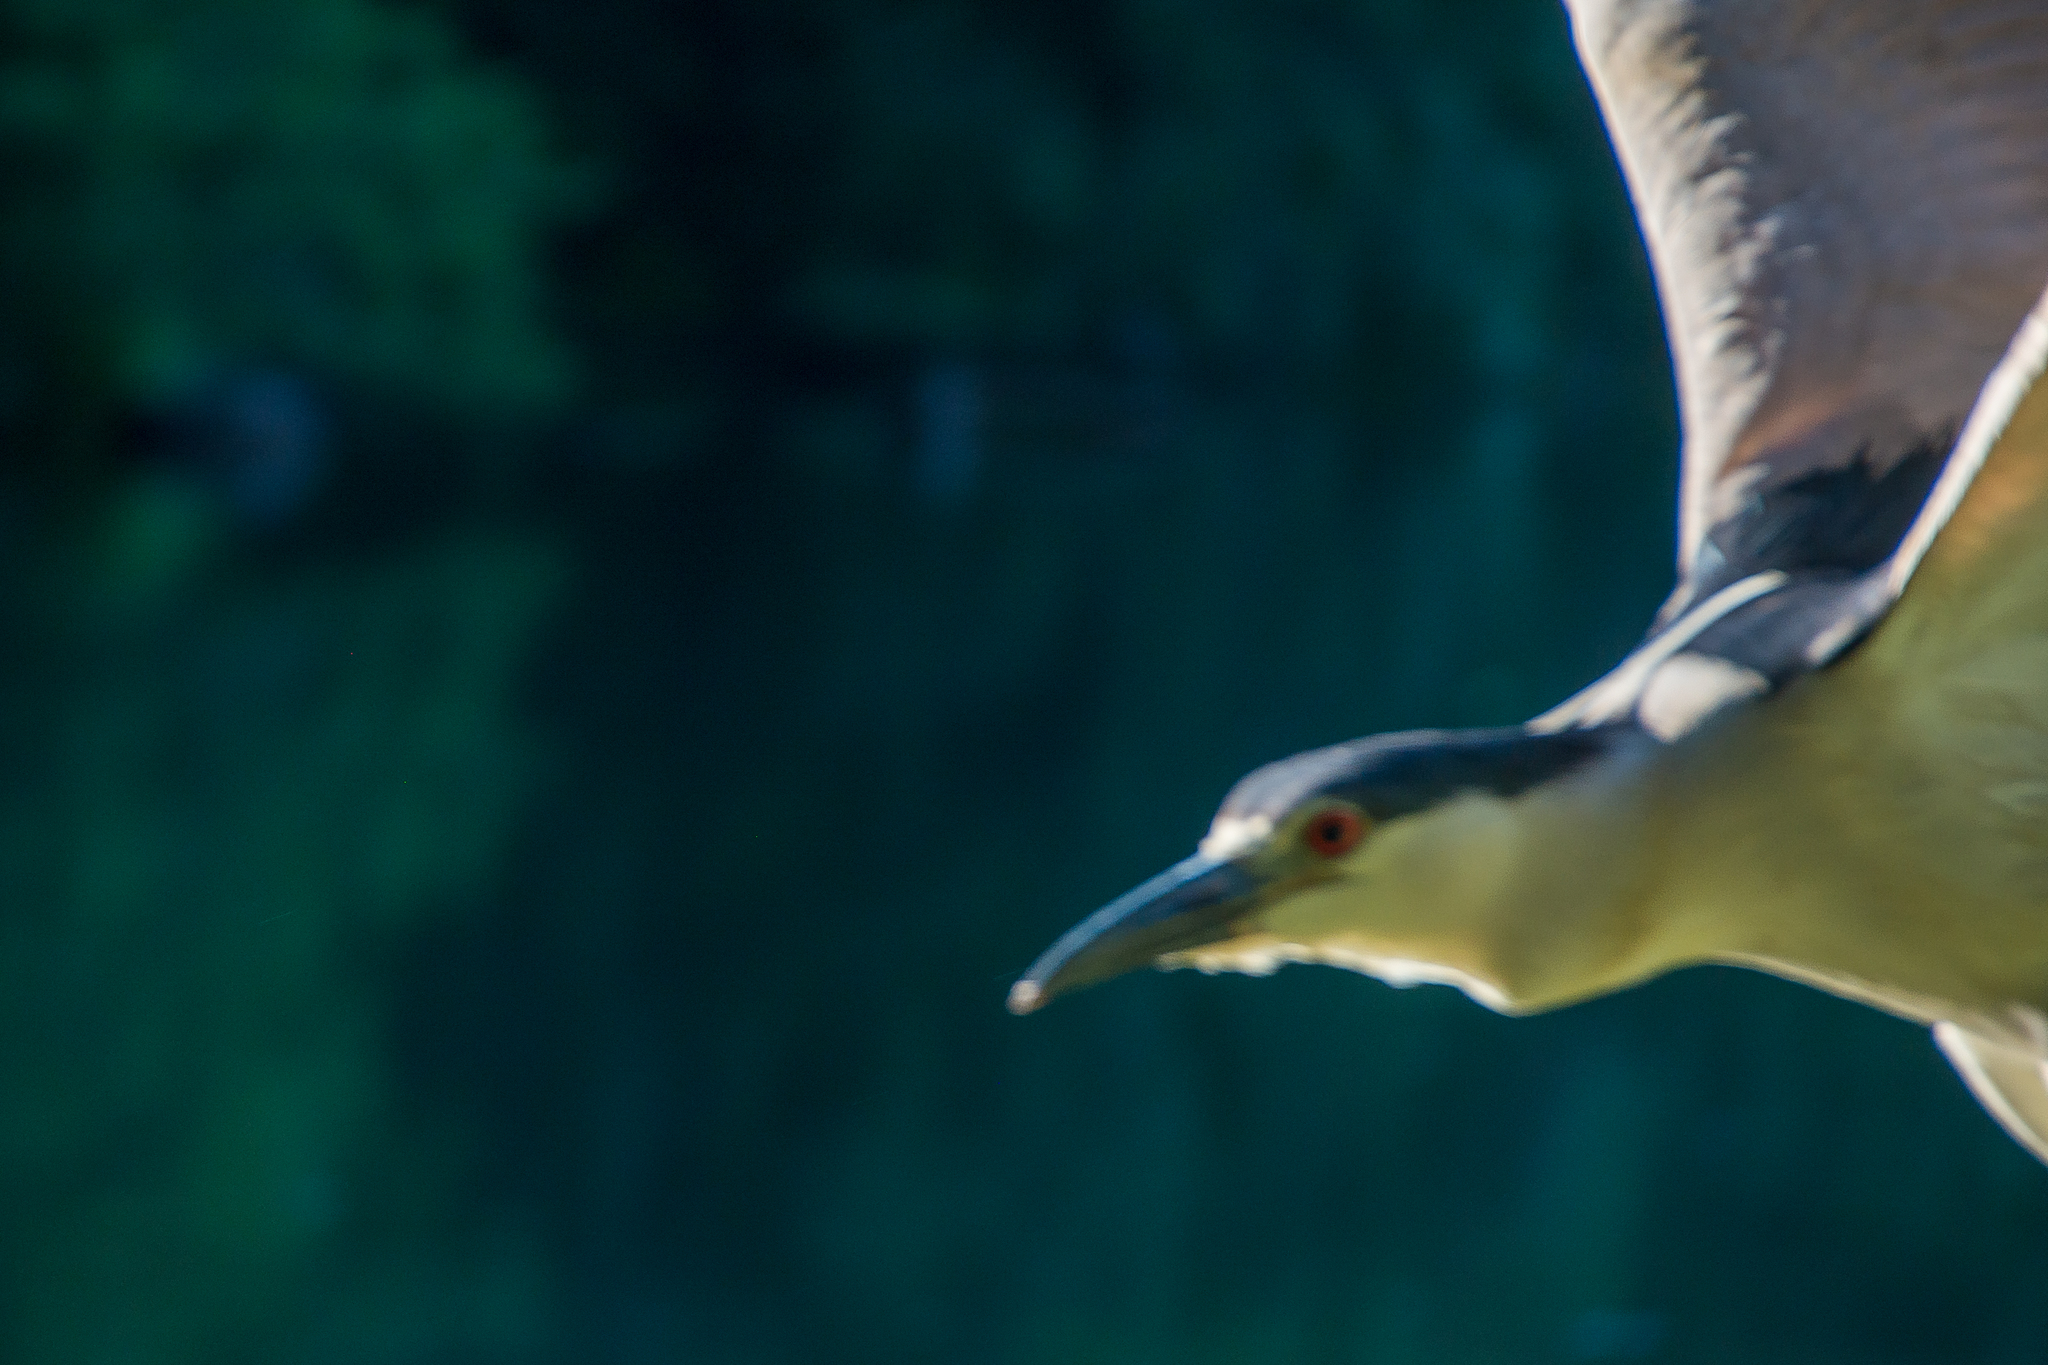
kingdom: Animalia
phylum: Chordata
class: Aves
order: Pelecaniformes
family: Ardeidae
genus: Nycticorax
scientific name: Nycticorax nycticorax
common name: Black-crowned night heron
